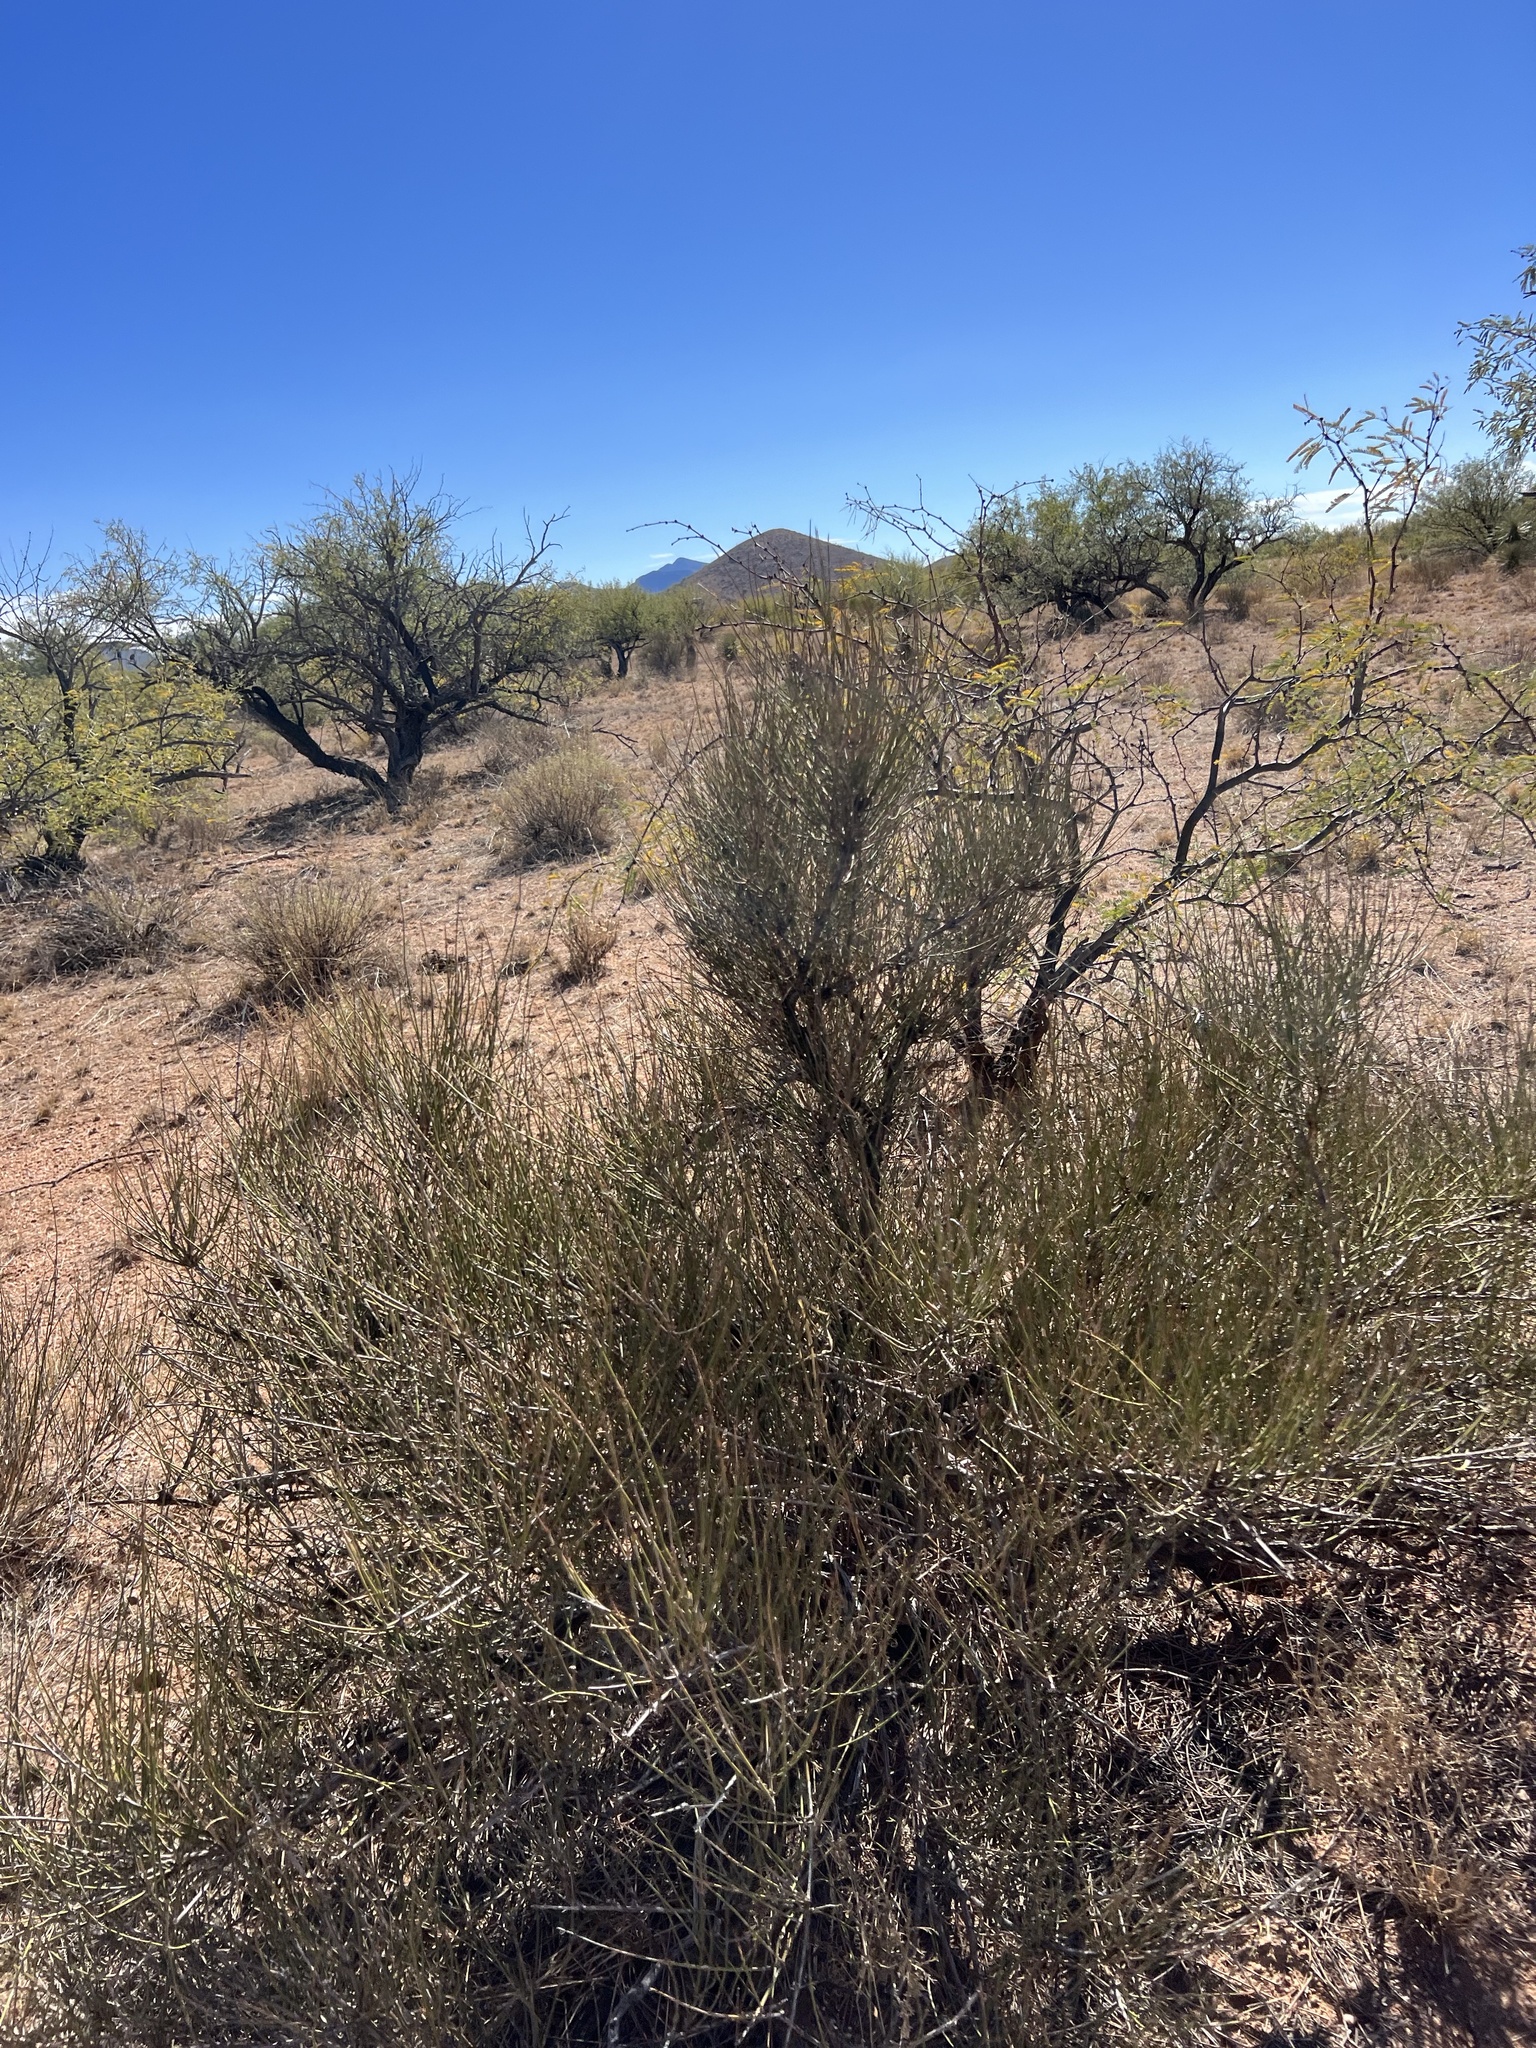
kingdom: Plantae
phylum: Tracheophyta
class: Gnetopsida
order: Ephedrales
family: Ephedraceae
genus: Ephedra
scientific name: Ephedra trifurca
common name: Mexican-tea
